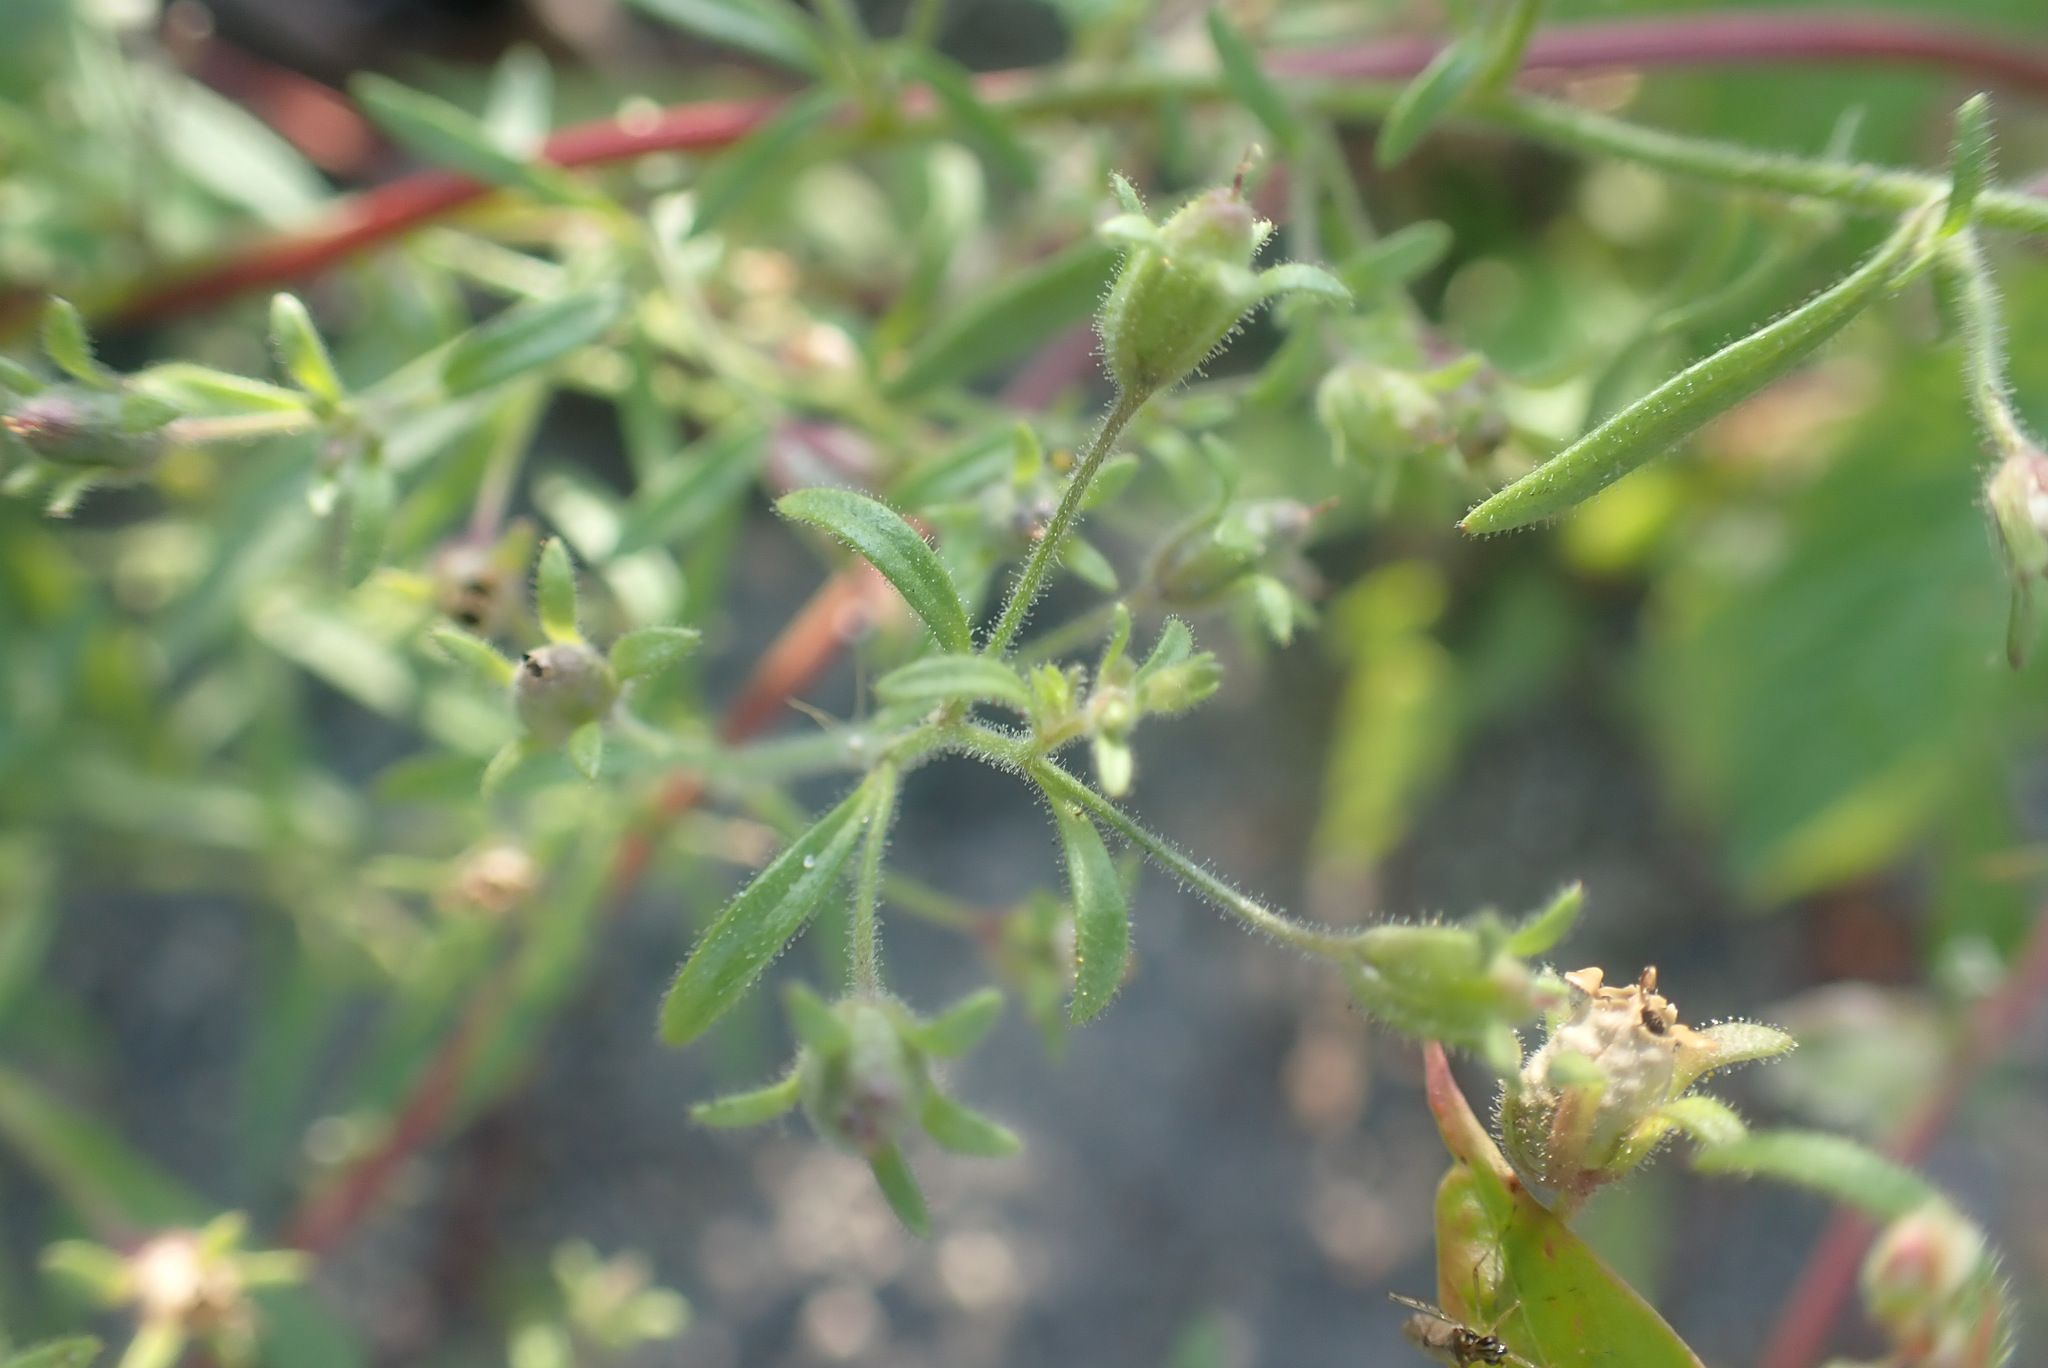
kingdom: Plantae
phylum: Tracheophyta
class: Magnoliopsida
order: Lamiales
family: Plantaginaceae
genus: Chaenorhinum
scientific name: Chaenorhinum minus
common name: Dwarf snapdragon
